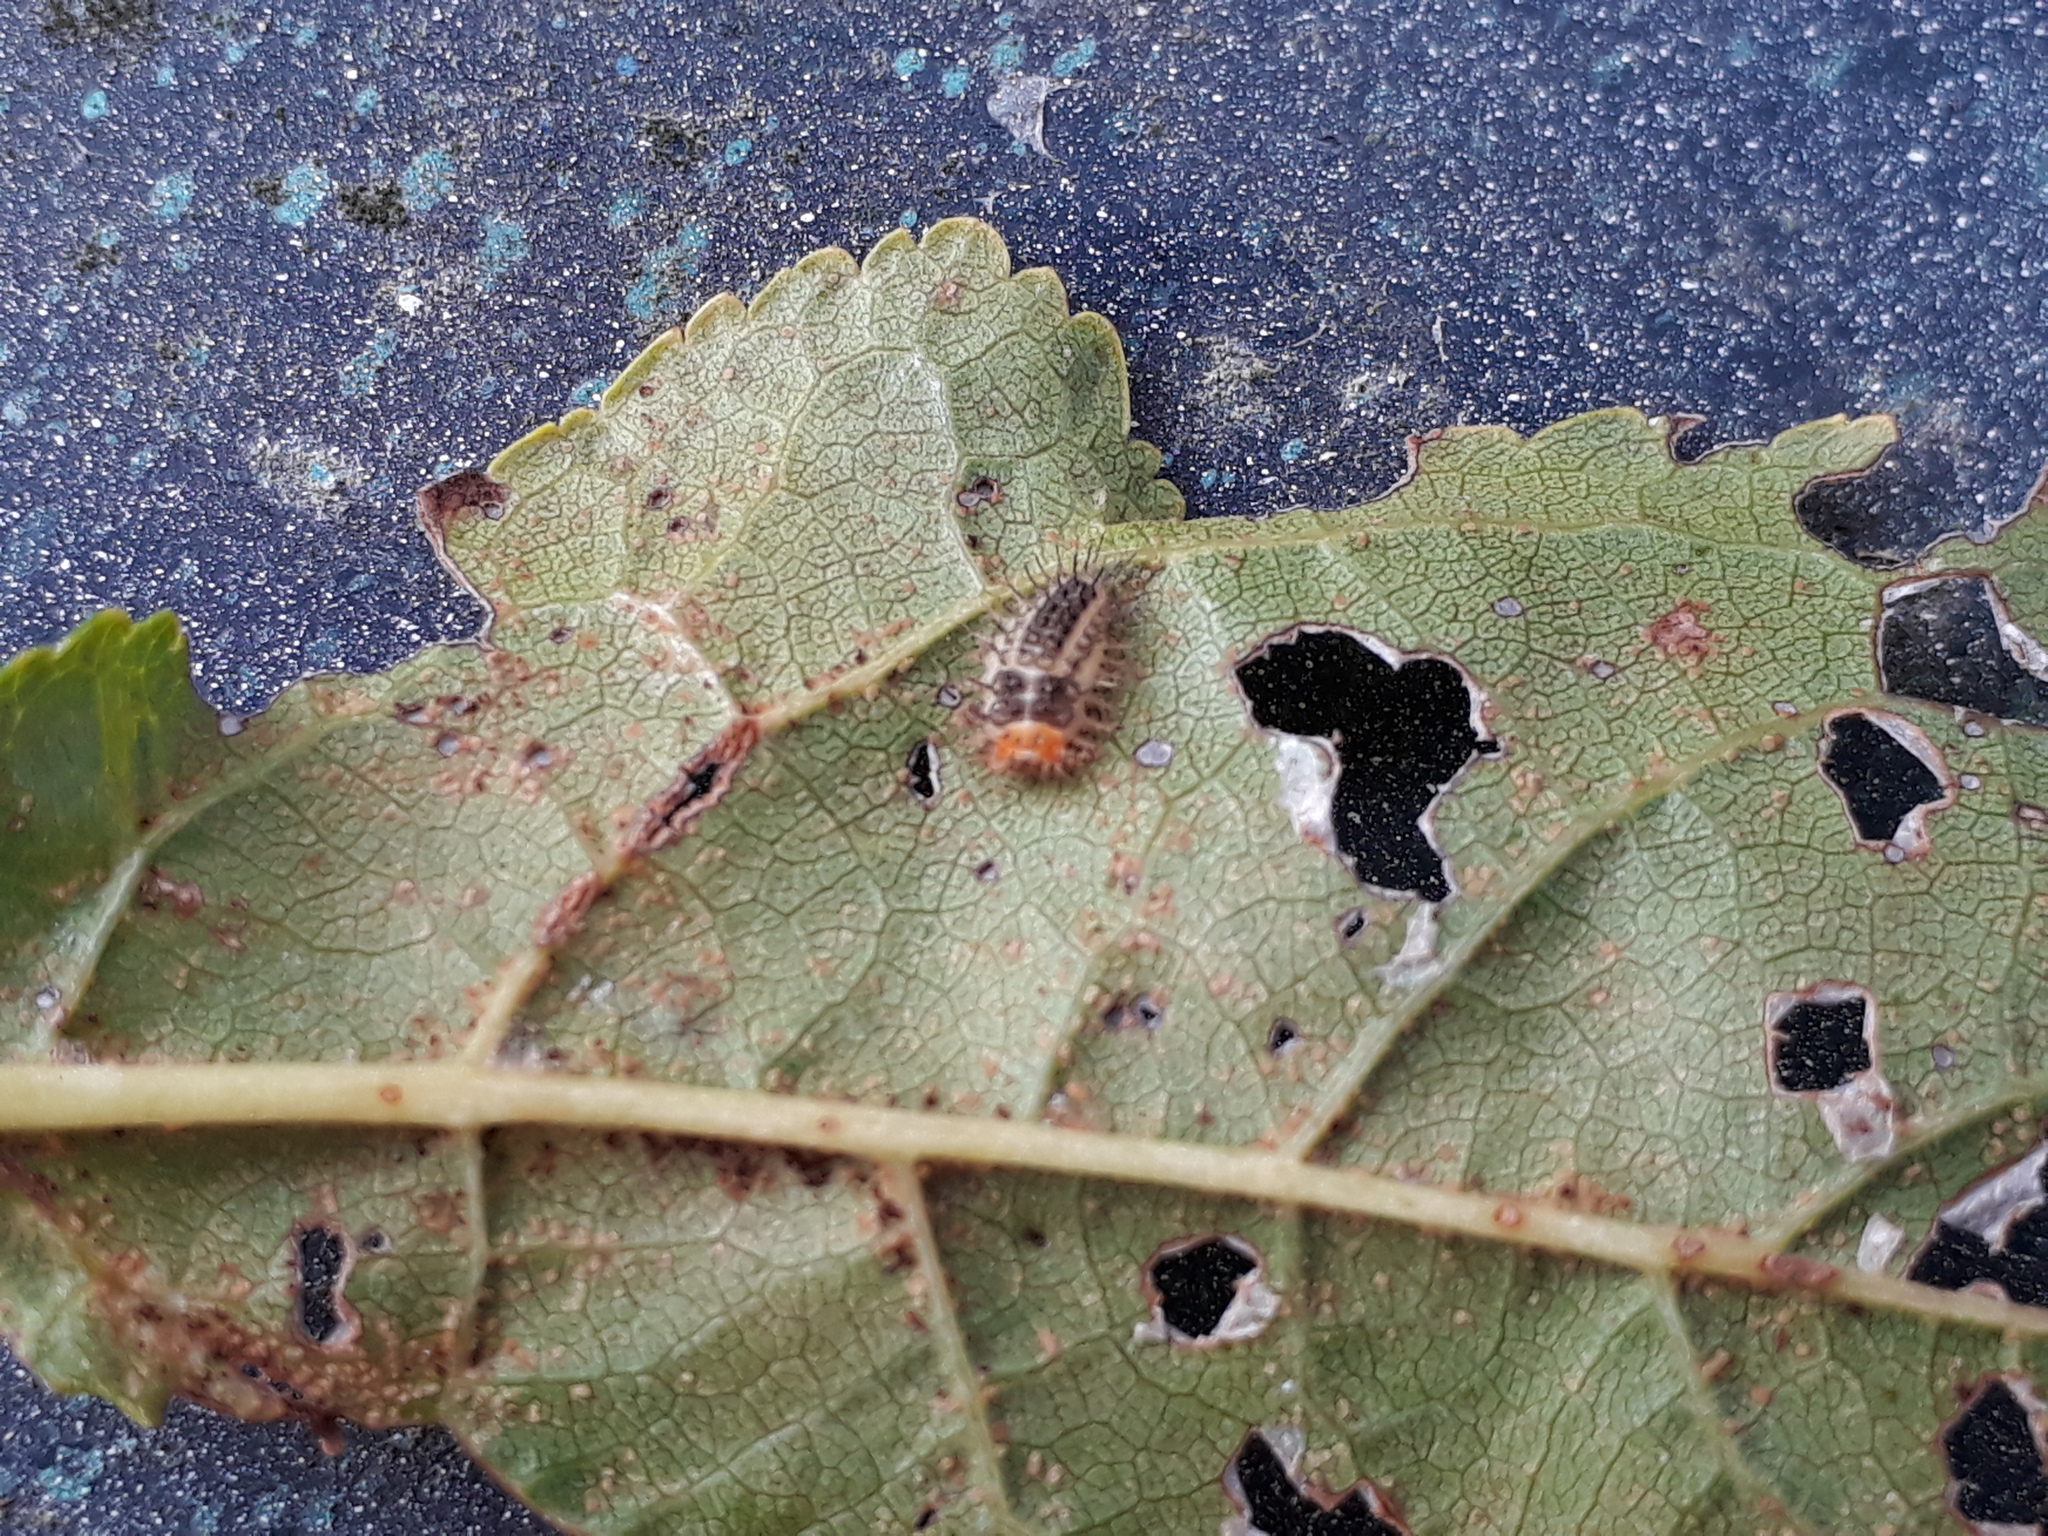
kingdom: Animalia
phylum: Arthropoda
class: Insecta
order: Coleoptera
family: Coccinellidae
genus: Halmus
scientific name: Halmus chalybeus
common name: Steel blue ladybird beetle
